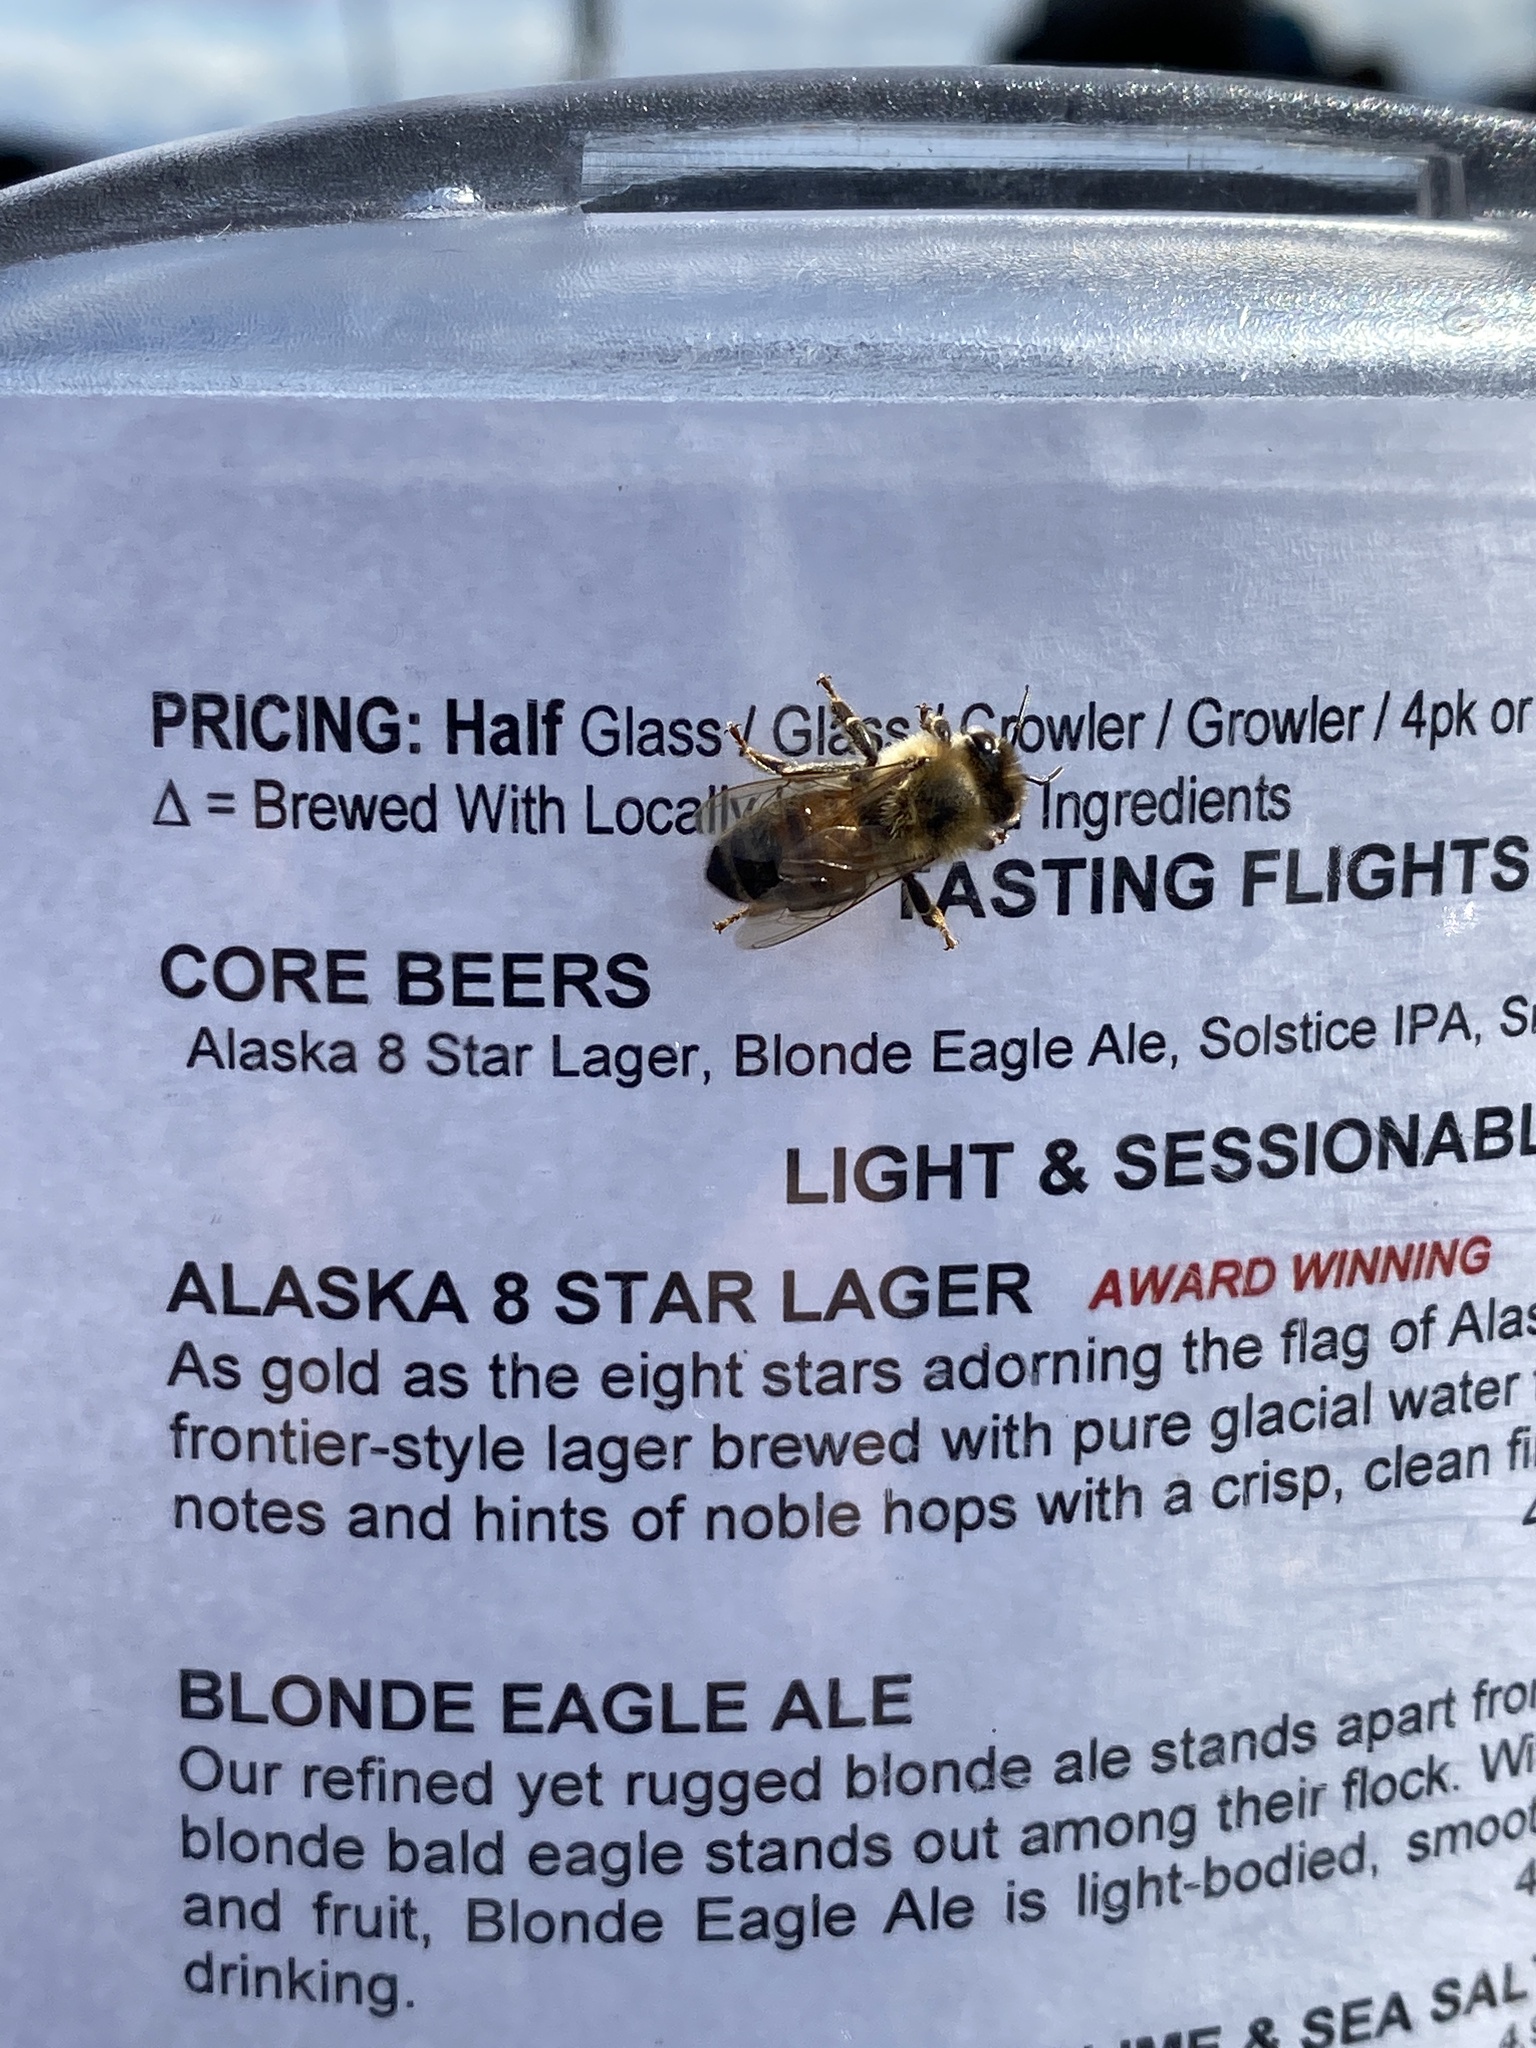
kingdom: Animalia
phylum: Arthropoda
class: Insecta
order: Hymenoptera
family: Apidae
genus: Apis
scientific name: Apis mellifera
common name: Honey bee
